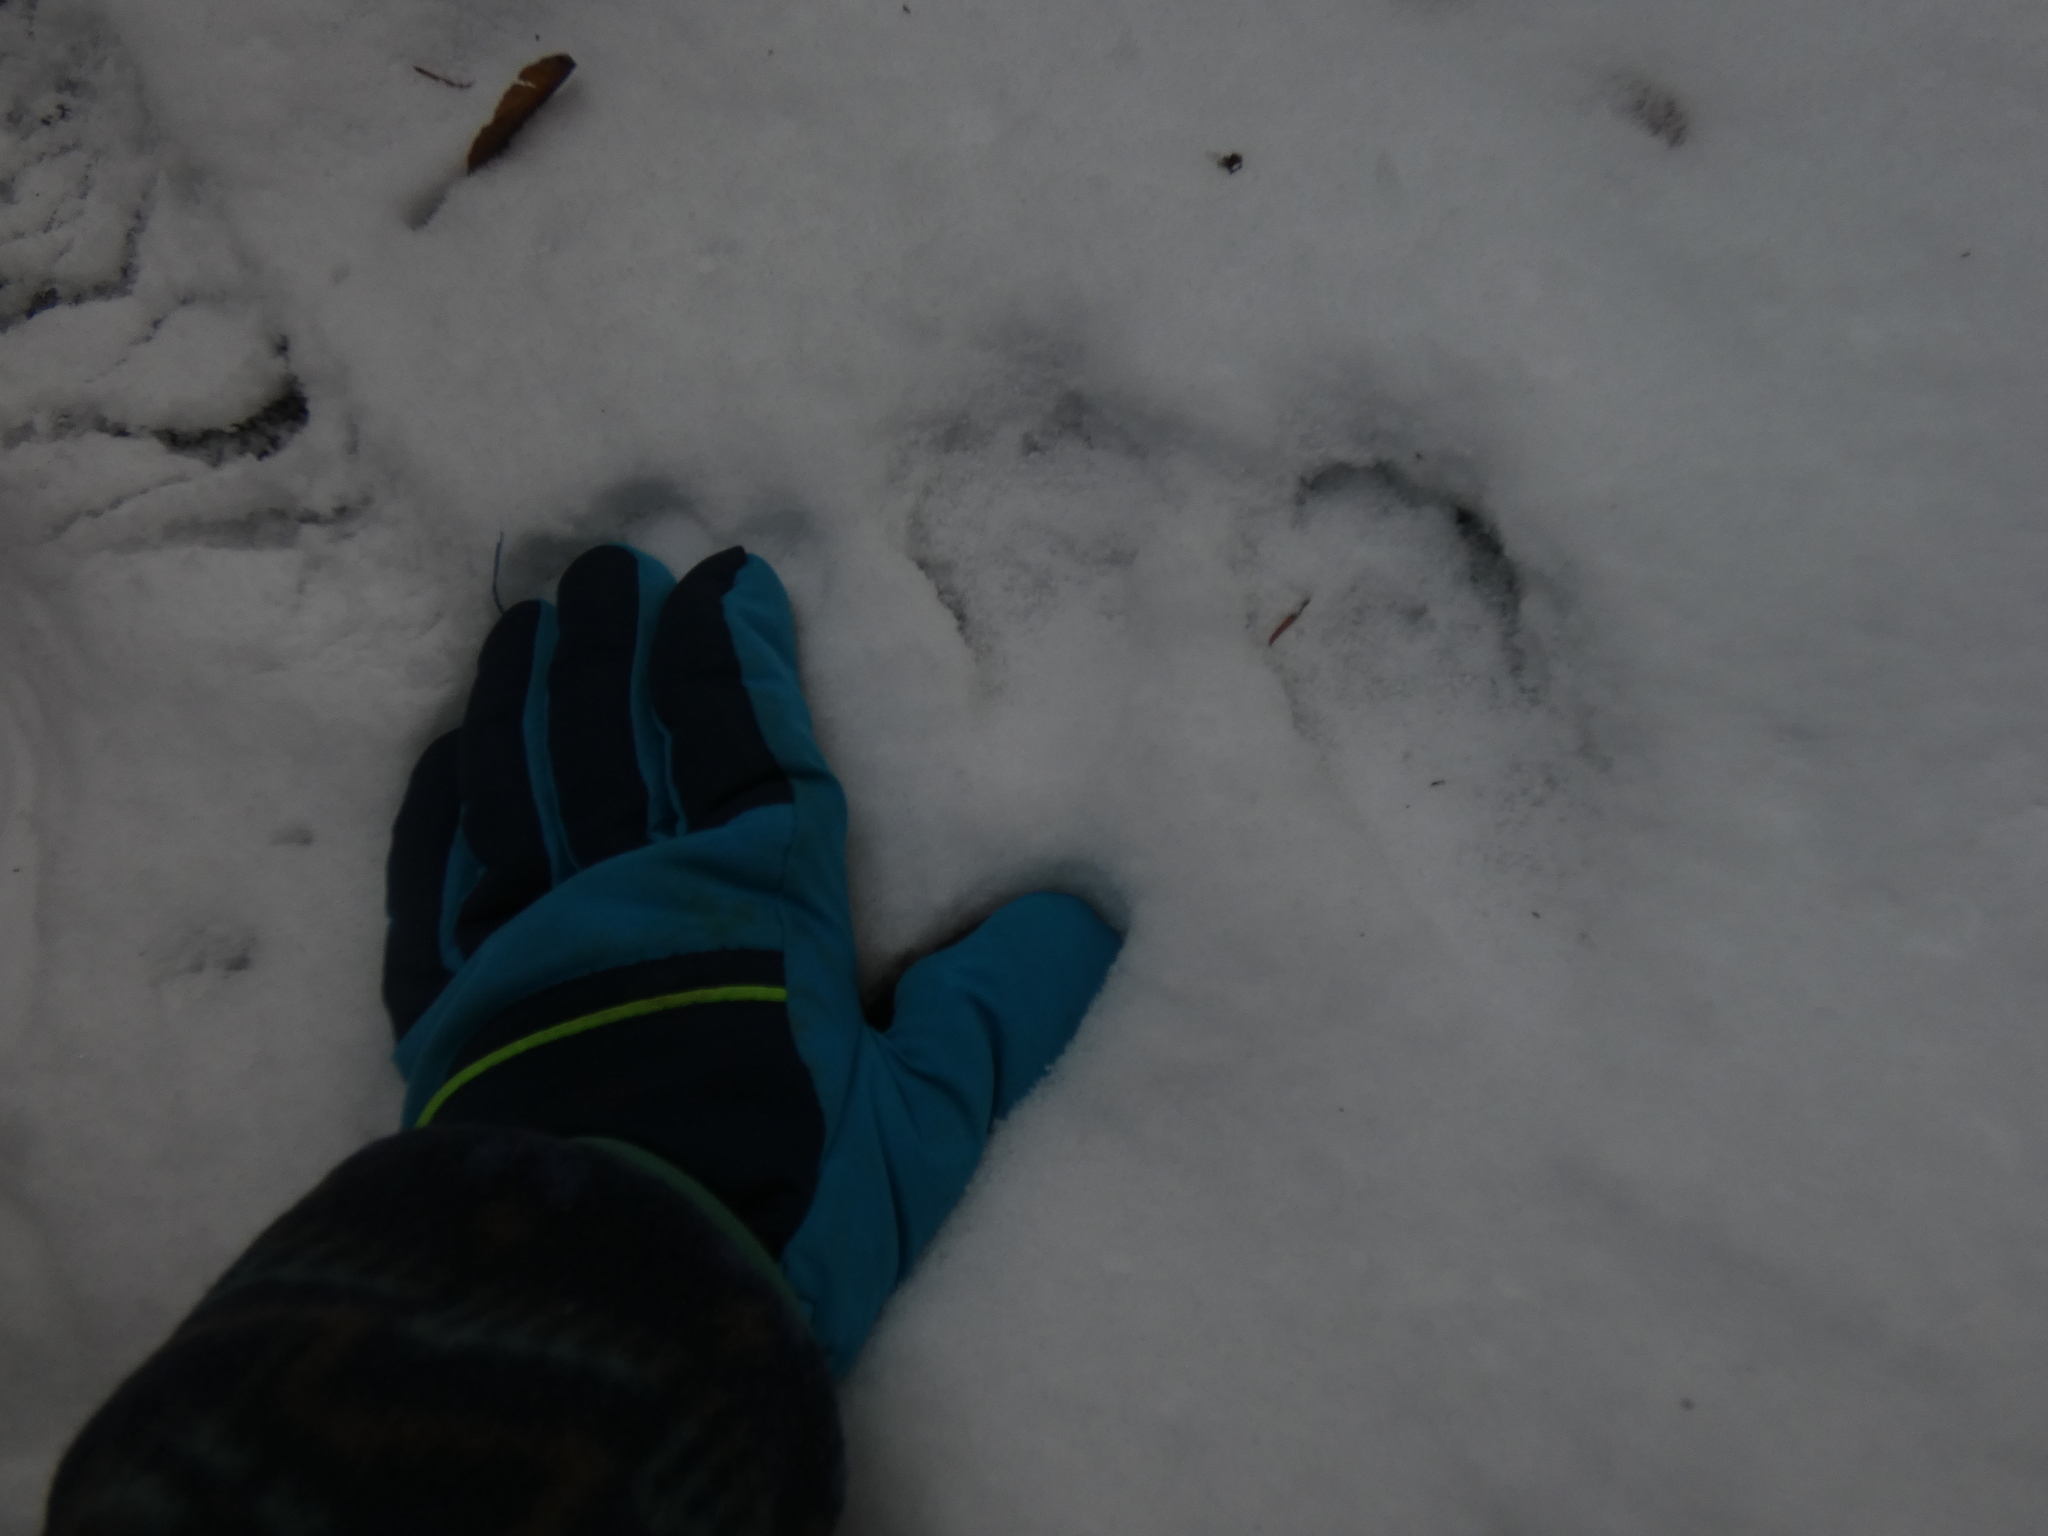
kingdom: Animalia
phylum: Chordata
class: Mammalia
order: Carnivora
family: Procyonidae
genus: Procyon
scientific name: Procyon lotor
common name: Raccoon
